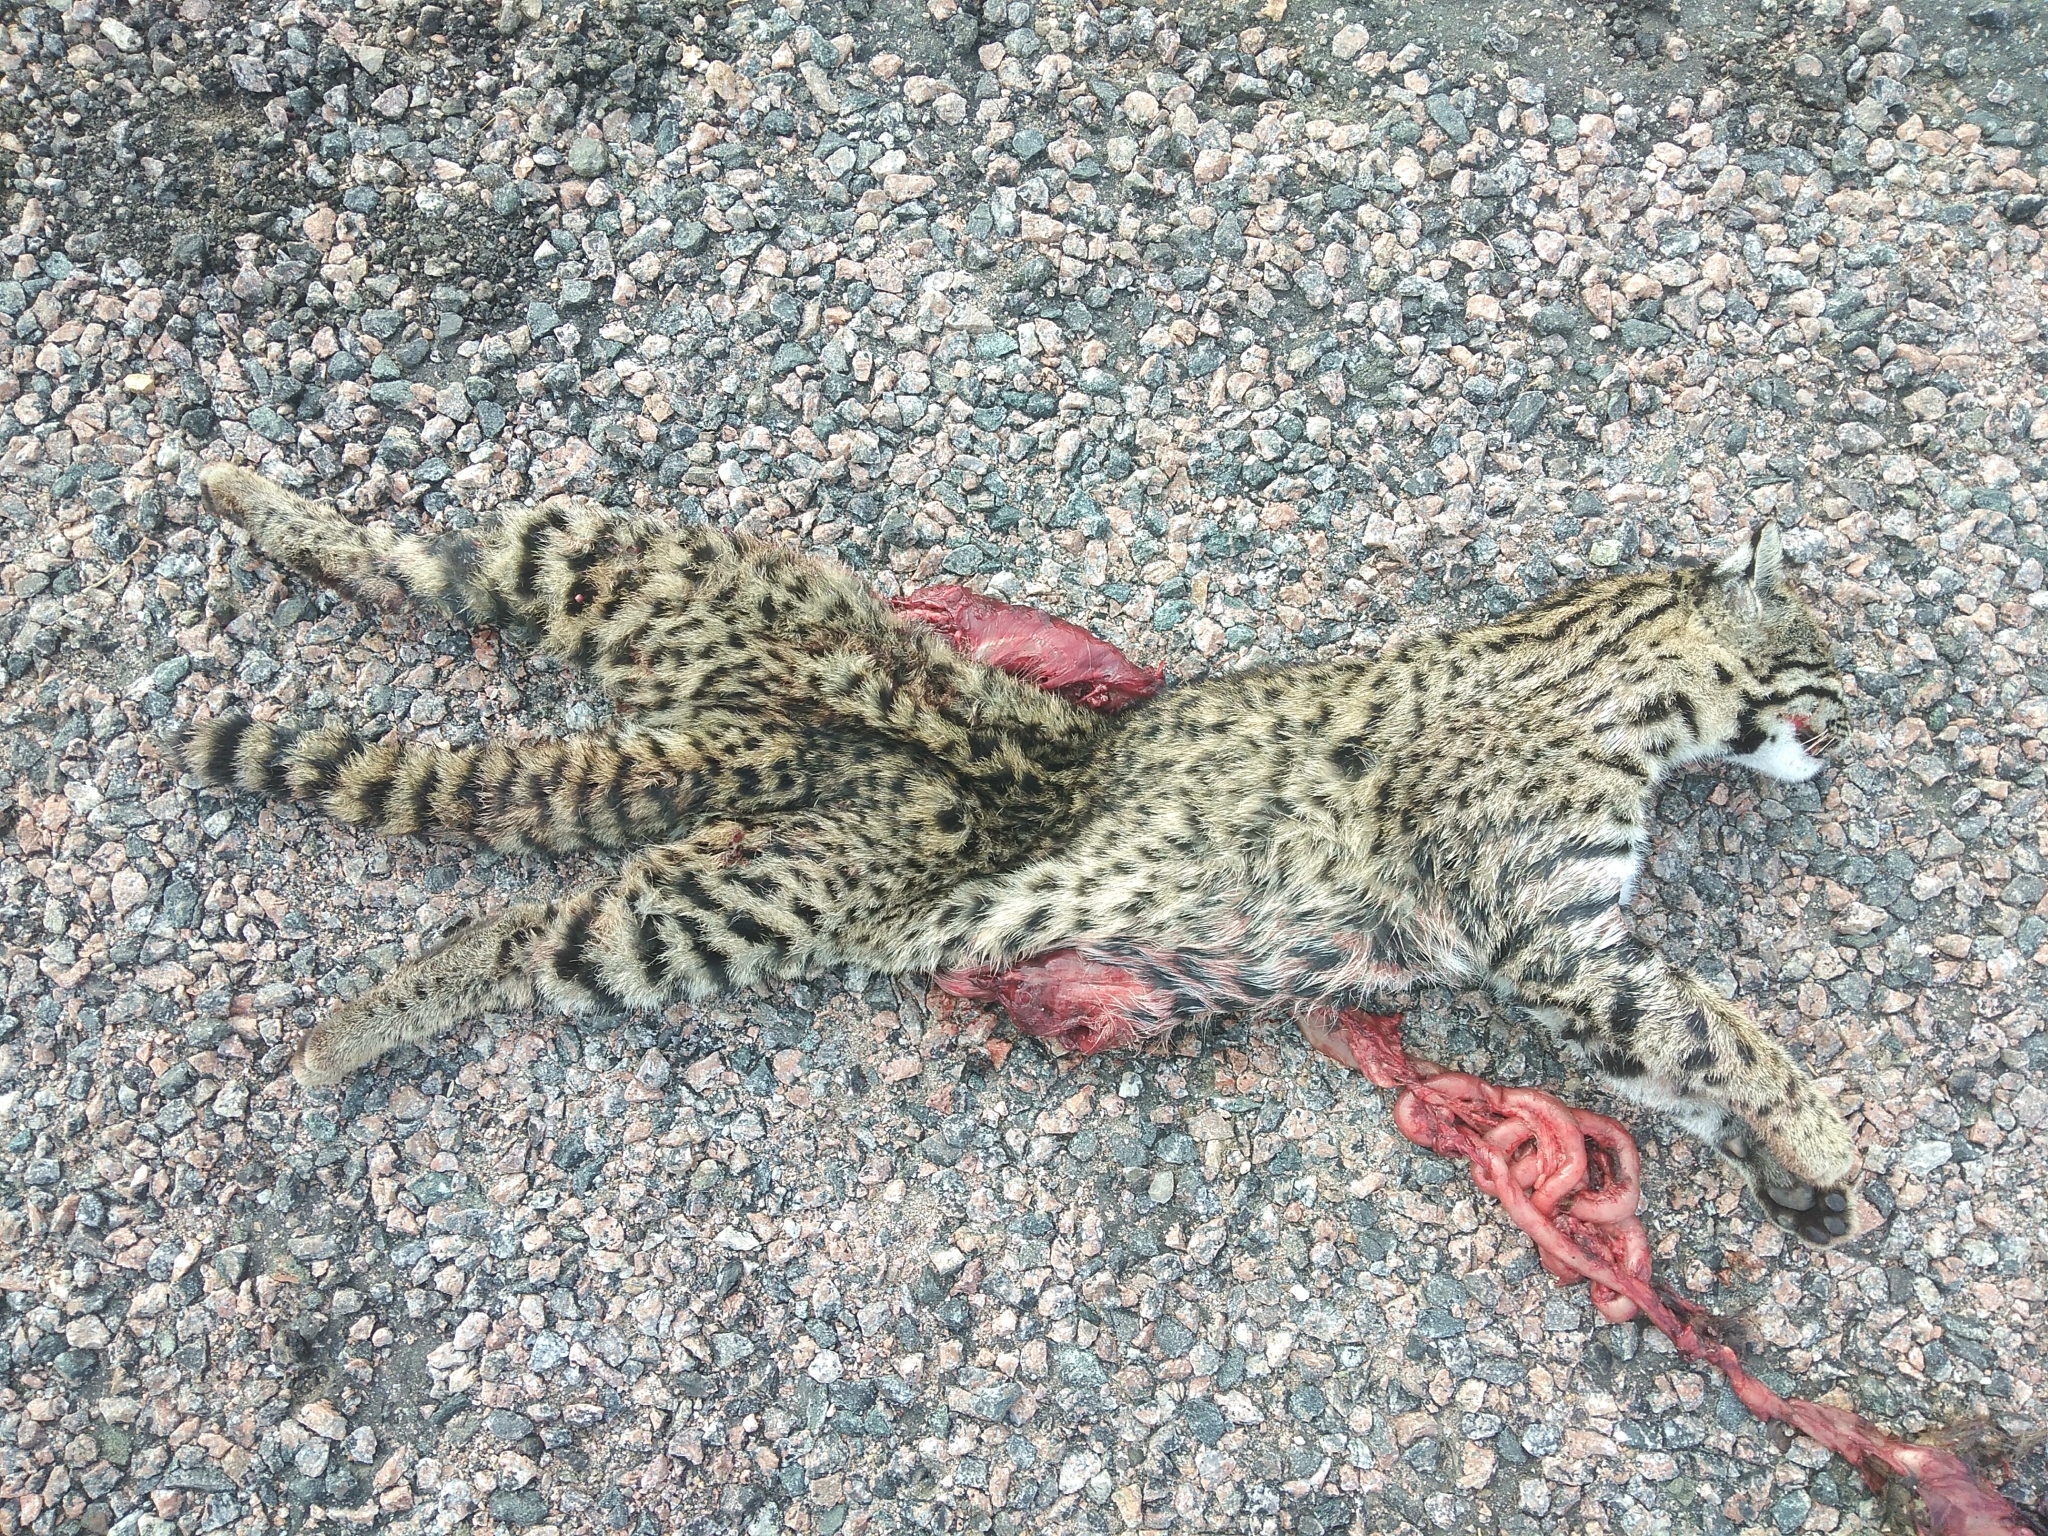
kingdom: Animalia
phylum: Chordata
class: Mammalia
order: Carnivora
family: Felidae
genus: Leopardus
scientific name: Leopardus geoffroyi
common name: Geoffroy's cat
